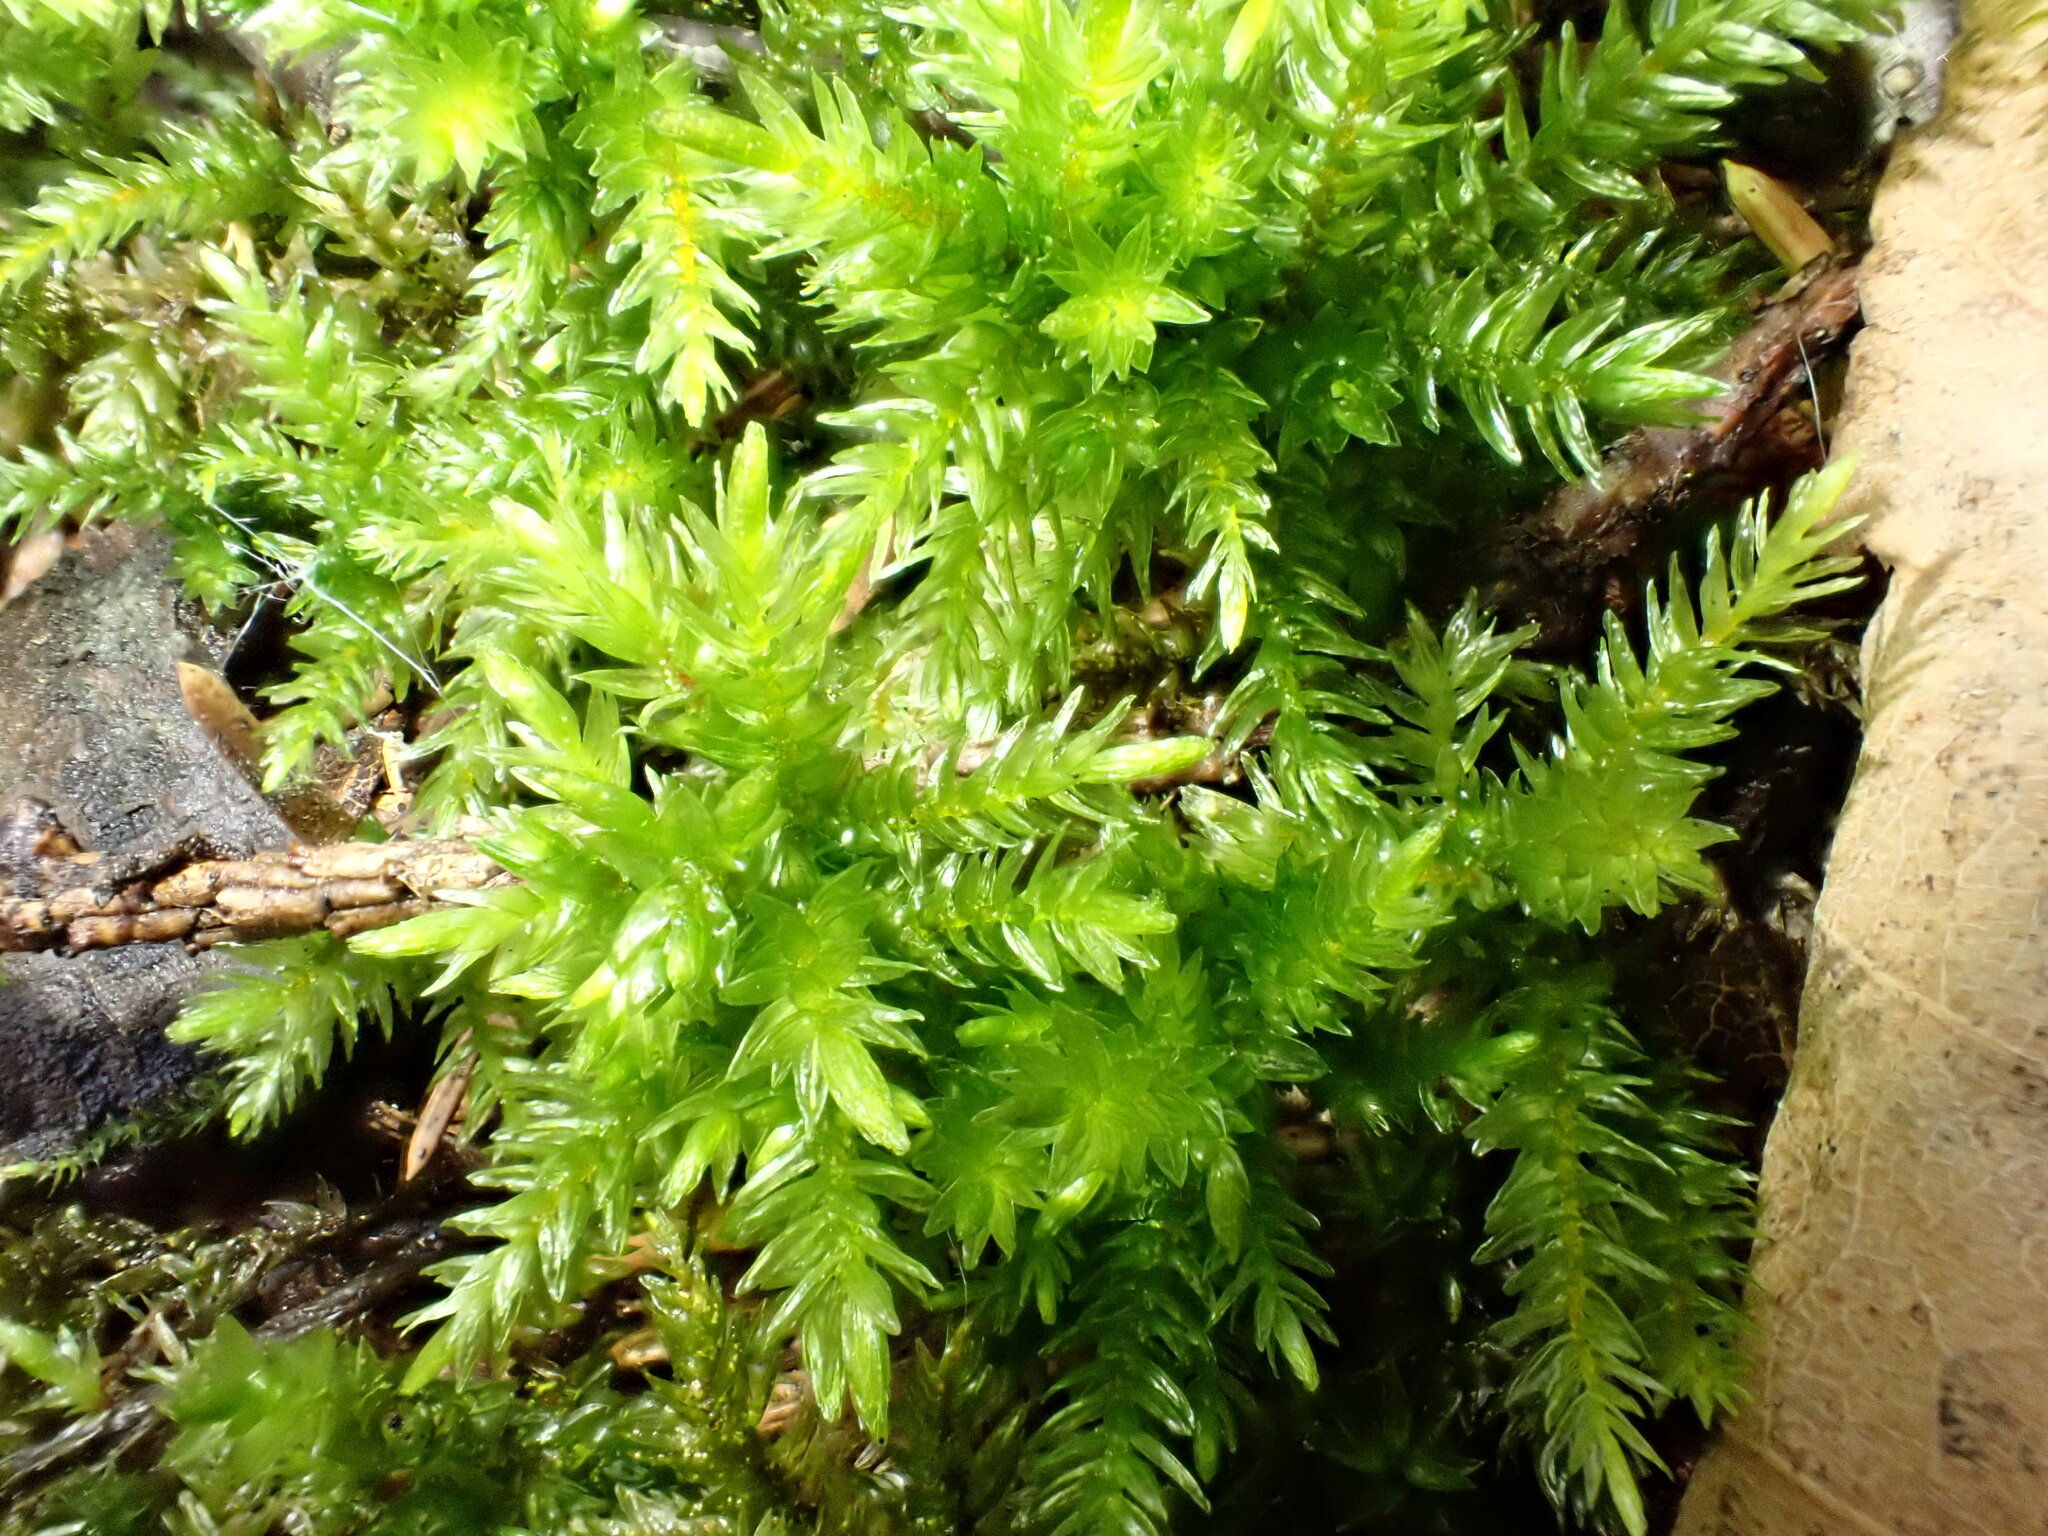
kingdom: Plantae
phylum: Bryophyta
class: Bryopsida
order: Hypnales
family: Climaciaceae
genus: Climacium
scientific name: Climacium dendroides
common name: Northern tree moss
